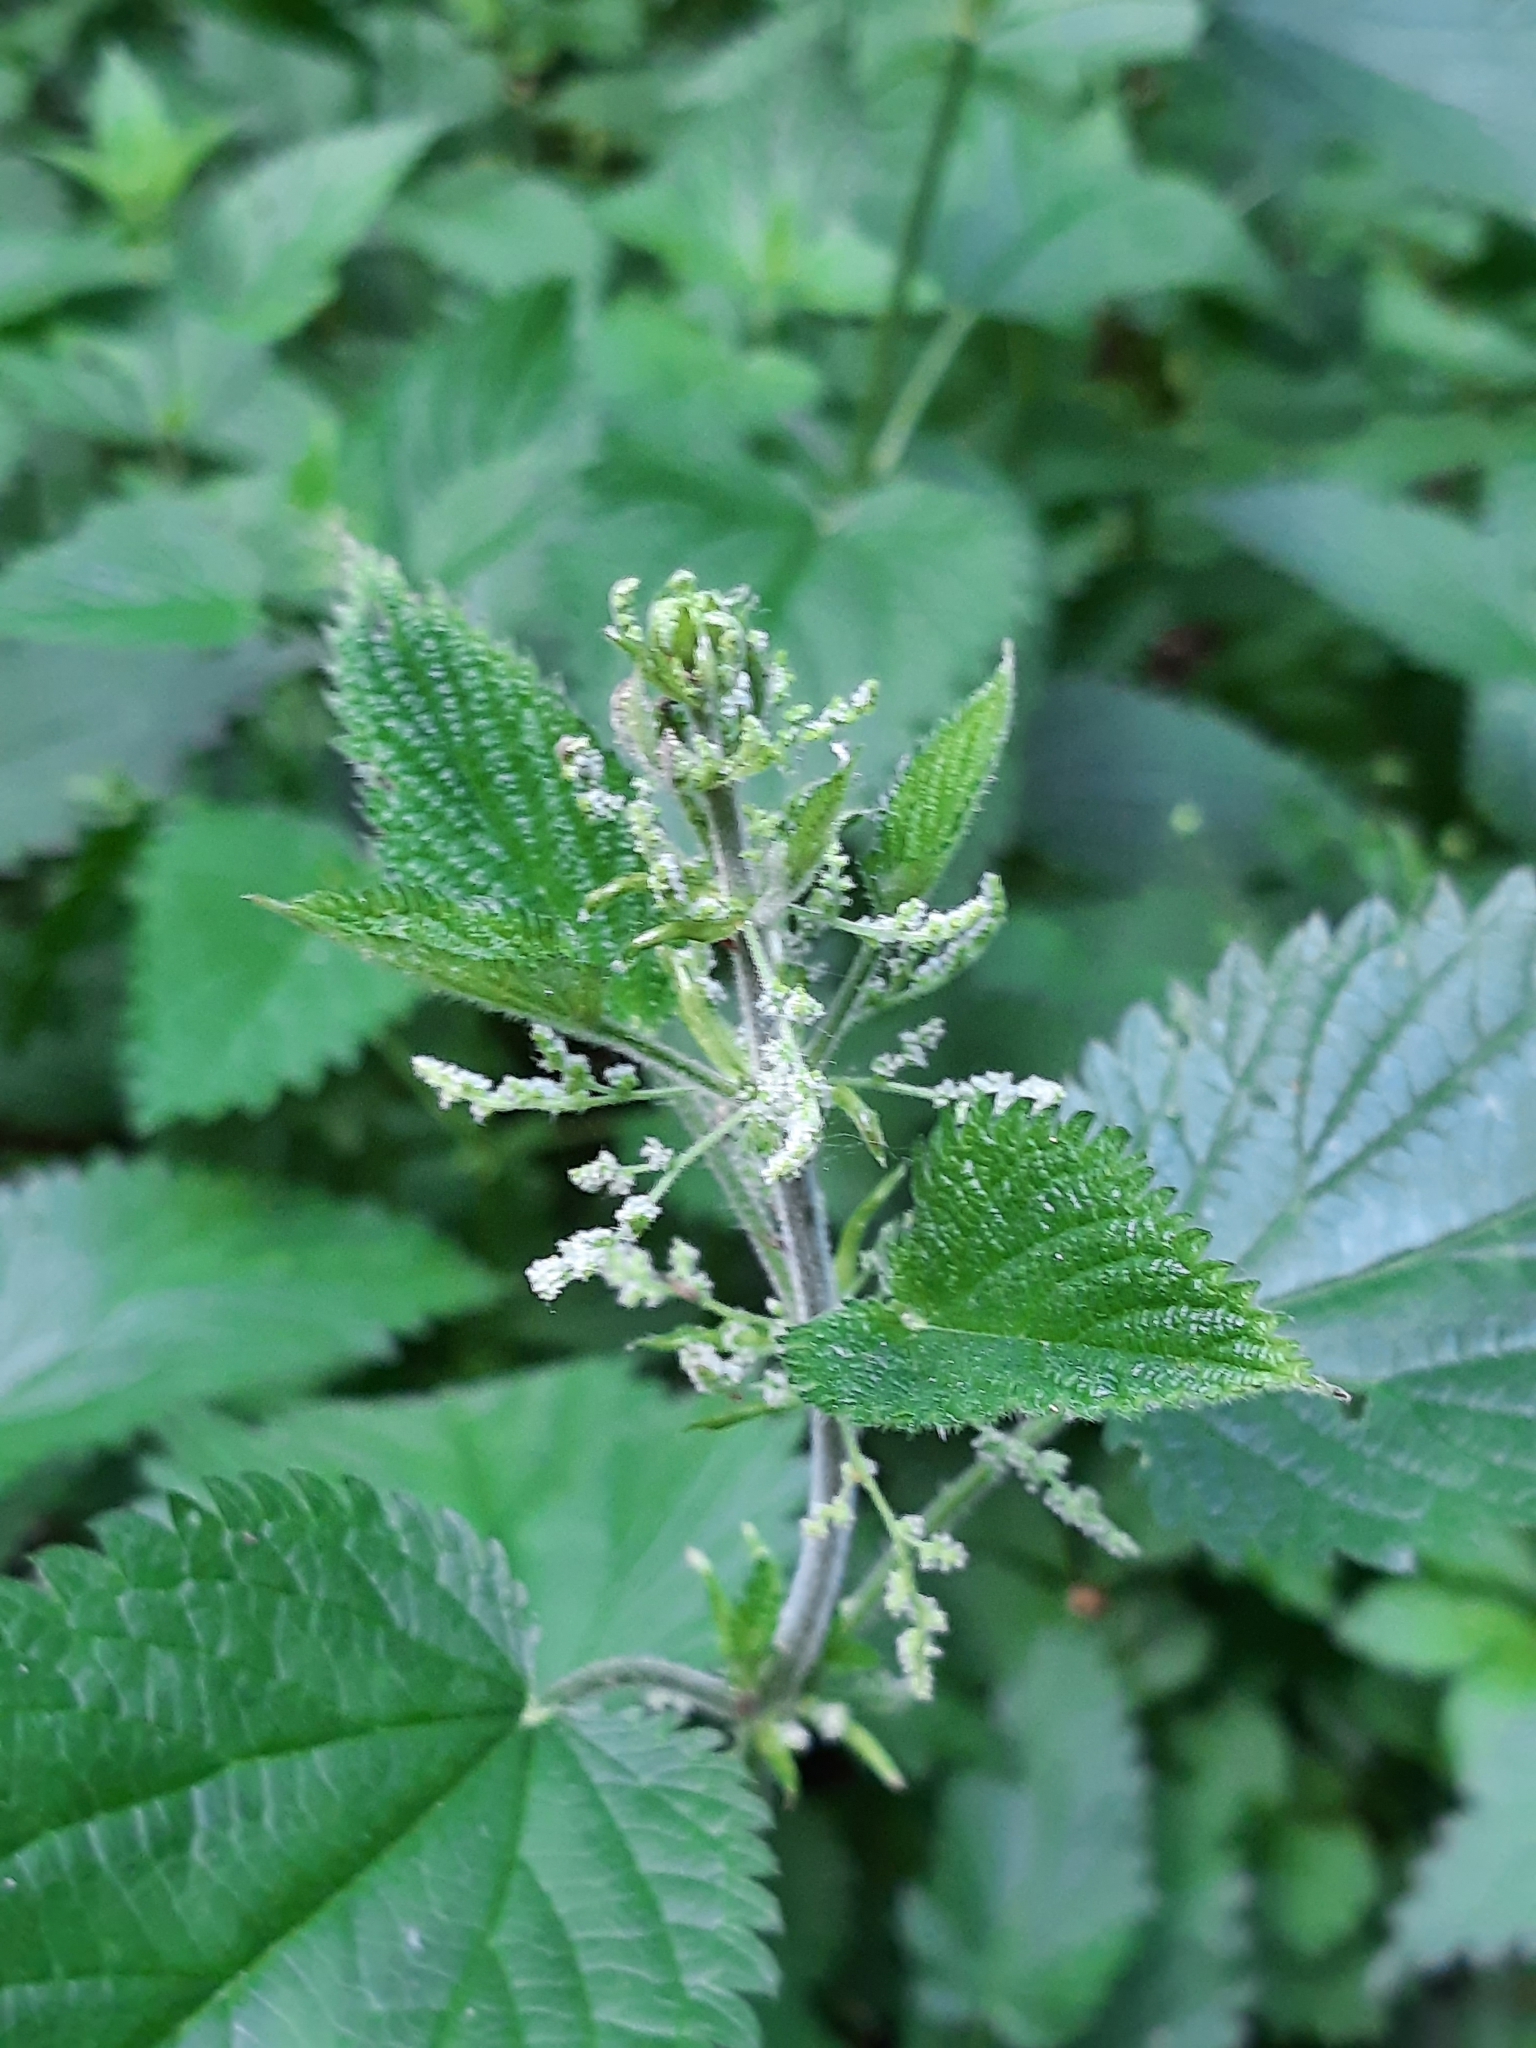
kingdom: Plantae
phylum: Tracheophyta
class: Magnoliopsida
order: Rosales
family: Urticaceae
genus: Urtica
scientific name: Urtica dioica
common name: Common nettle
